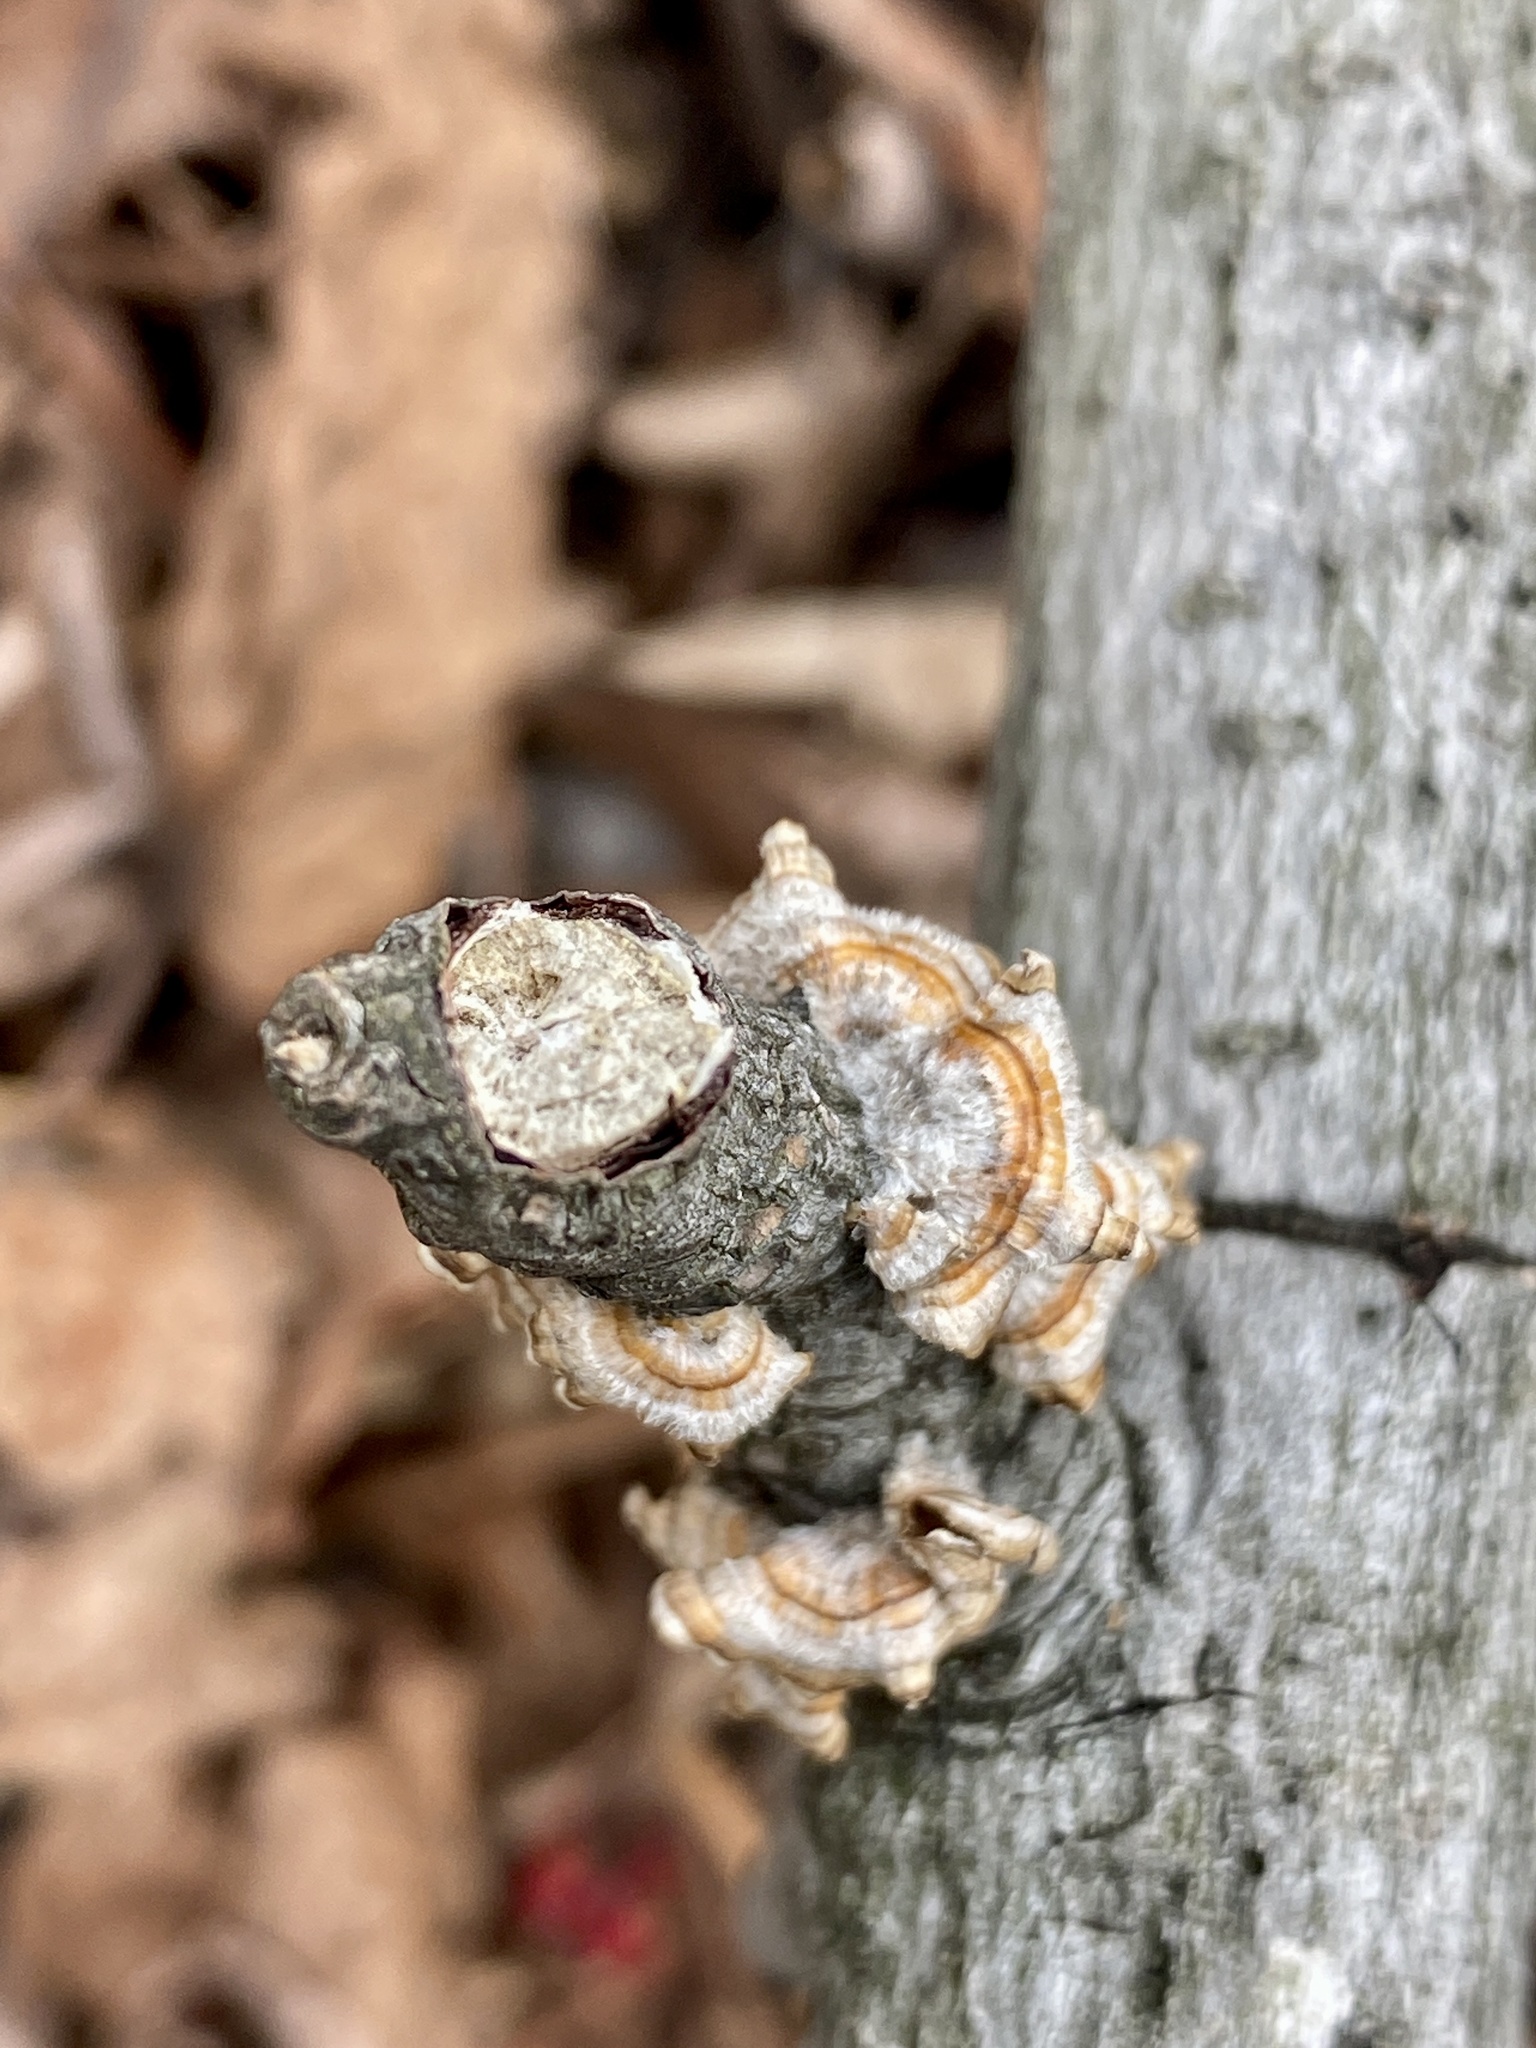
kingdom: Fungi
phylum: Basidiomycota
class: Agaricomycetes
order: Russulales
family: Stereaceae
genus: Stereum
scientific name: Stereum complicatum
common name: Crowded parchment
